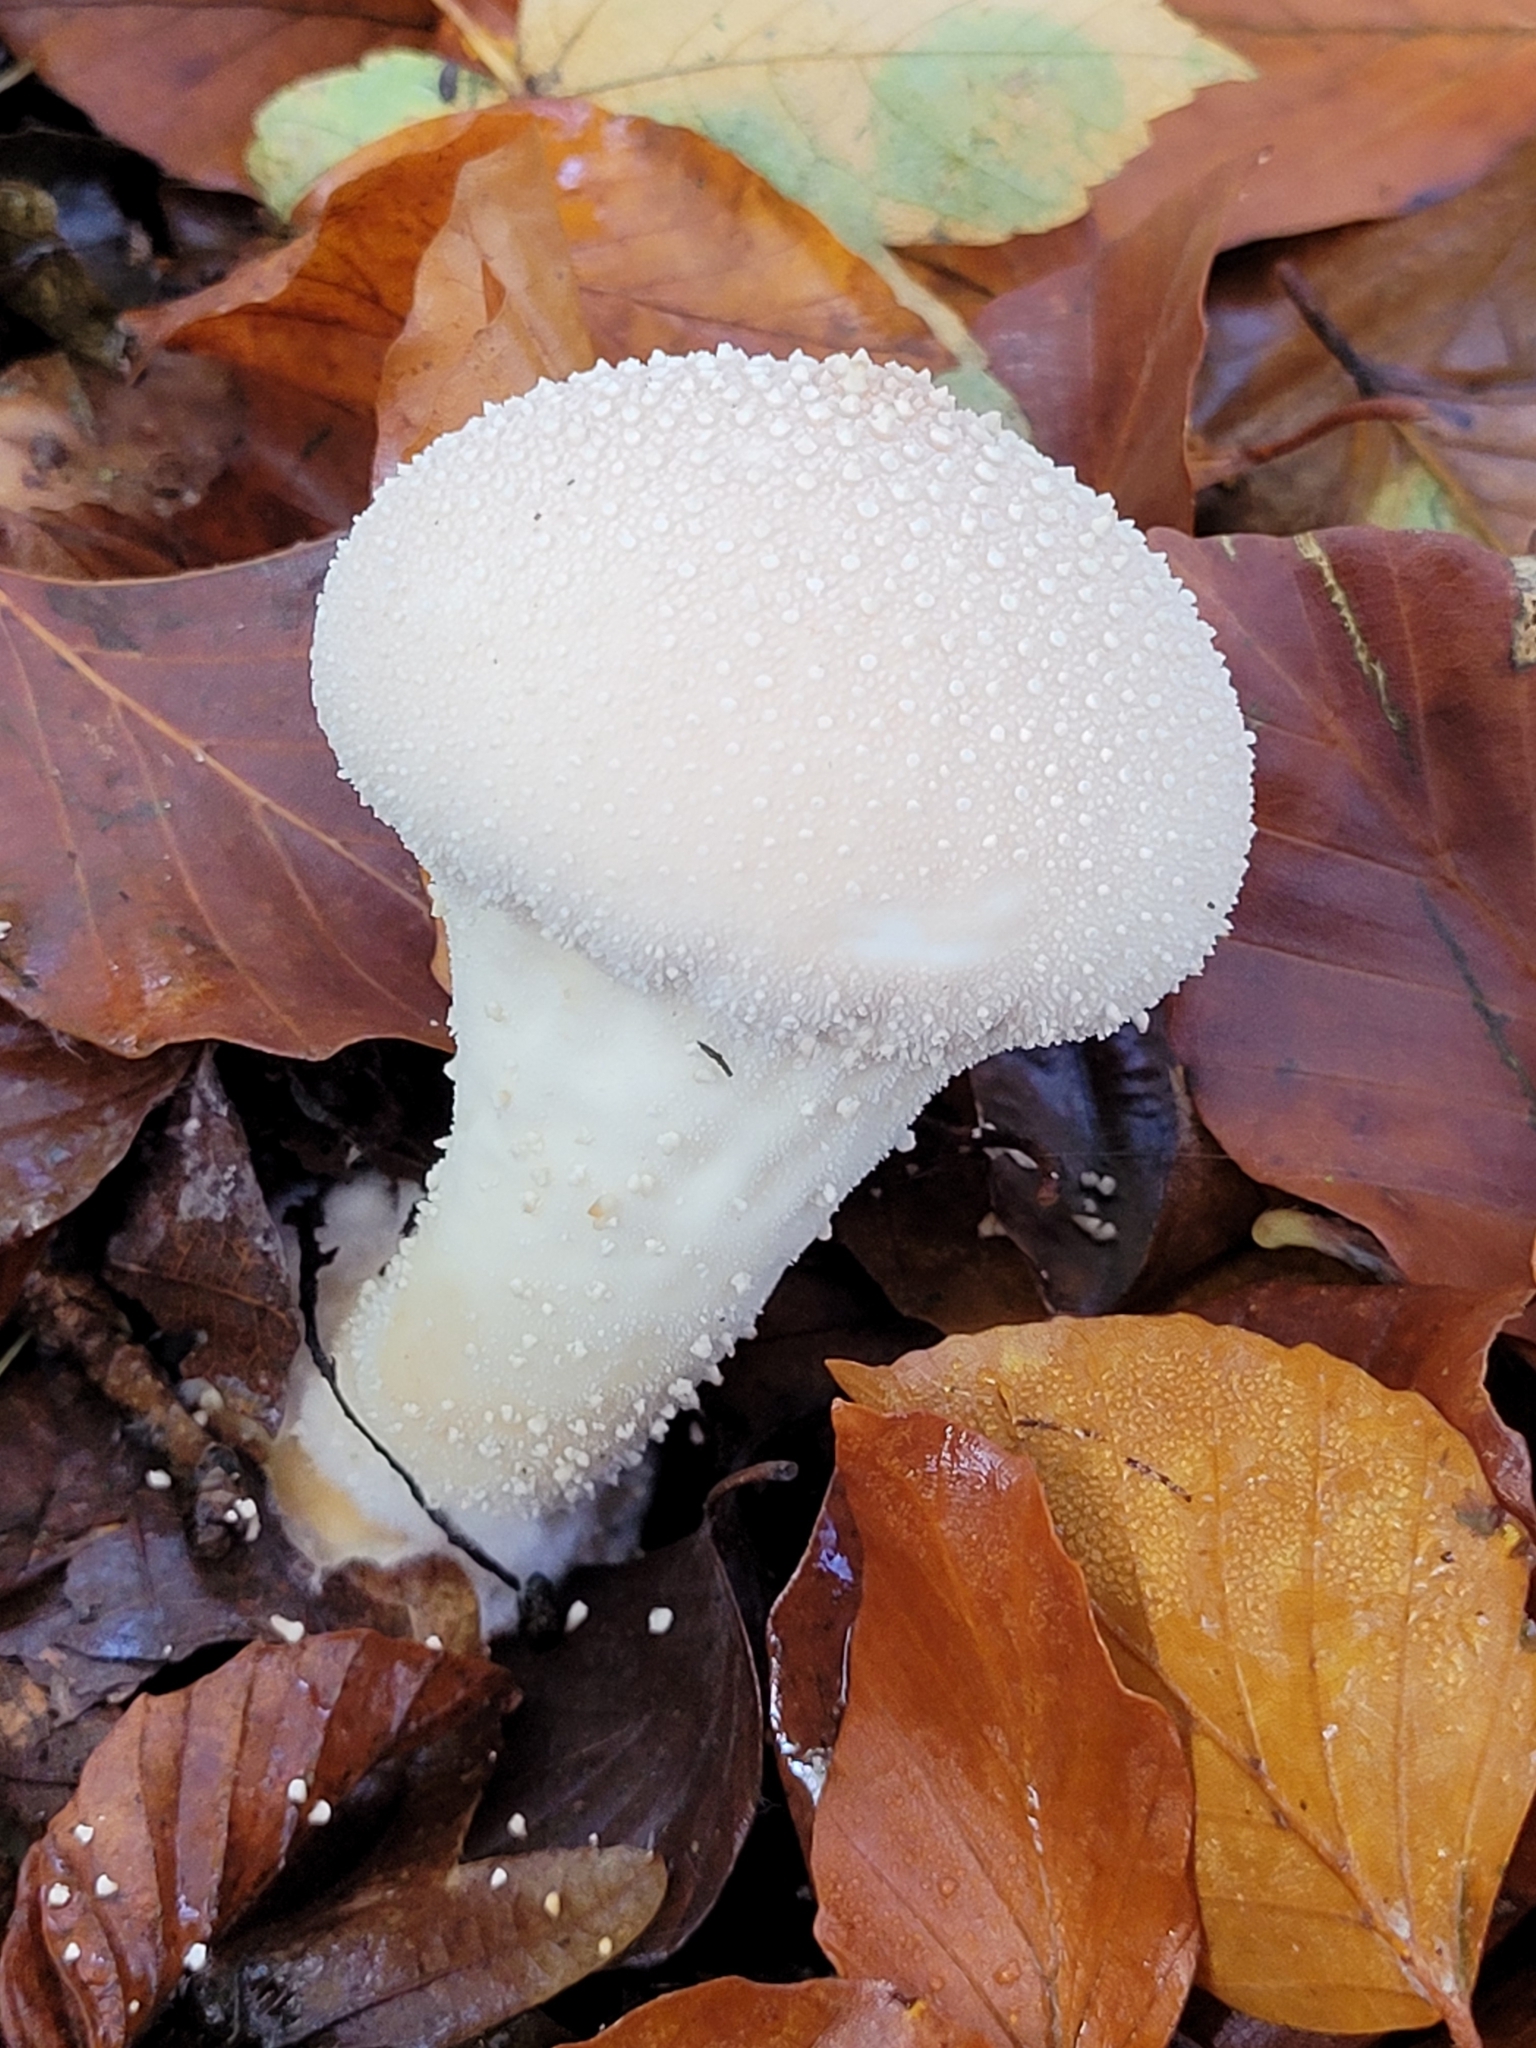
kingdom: Fungi
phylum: Basidiomycota
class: Agaricomycetes
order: Agaricales
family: Lycoperdaceae
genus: Lycoperdon
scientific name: Lycoperdon perlatum
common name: Common puffball
